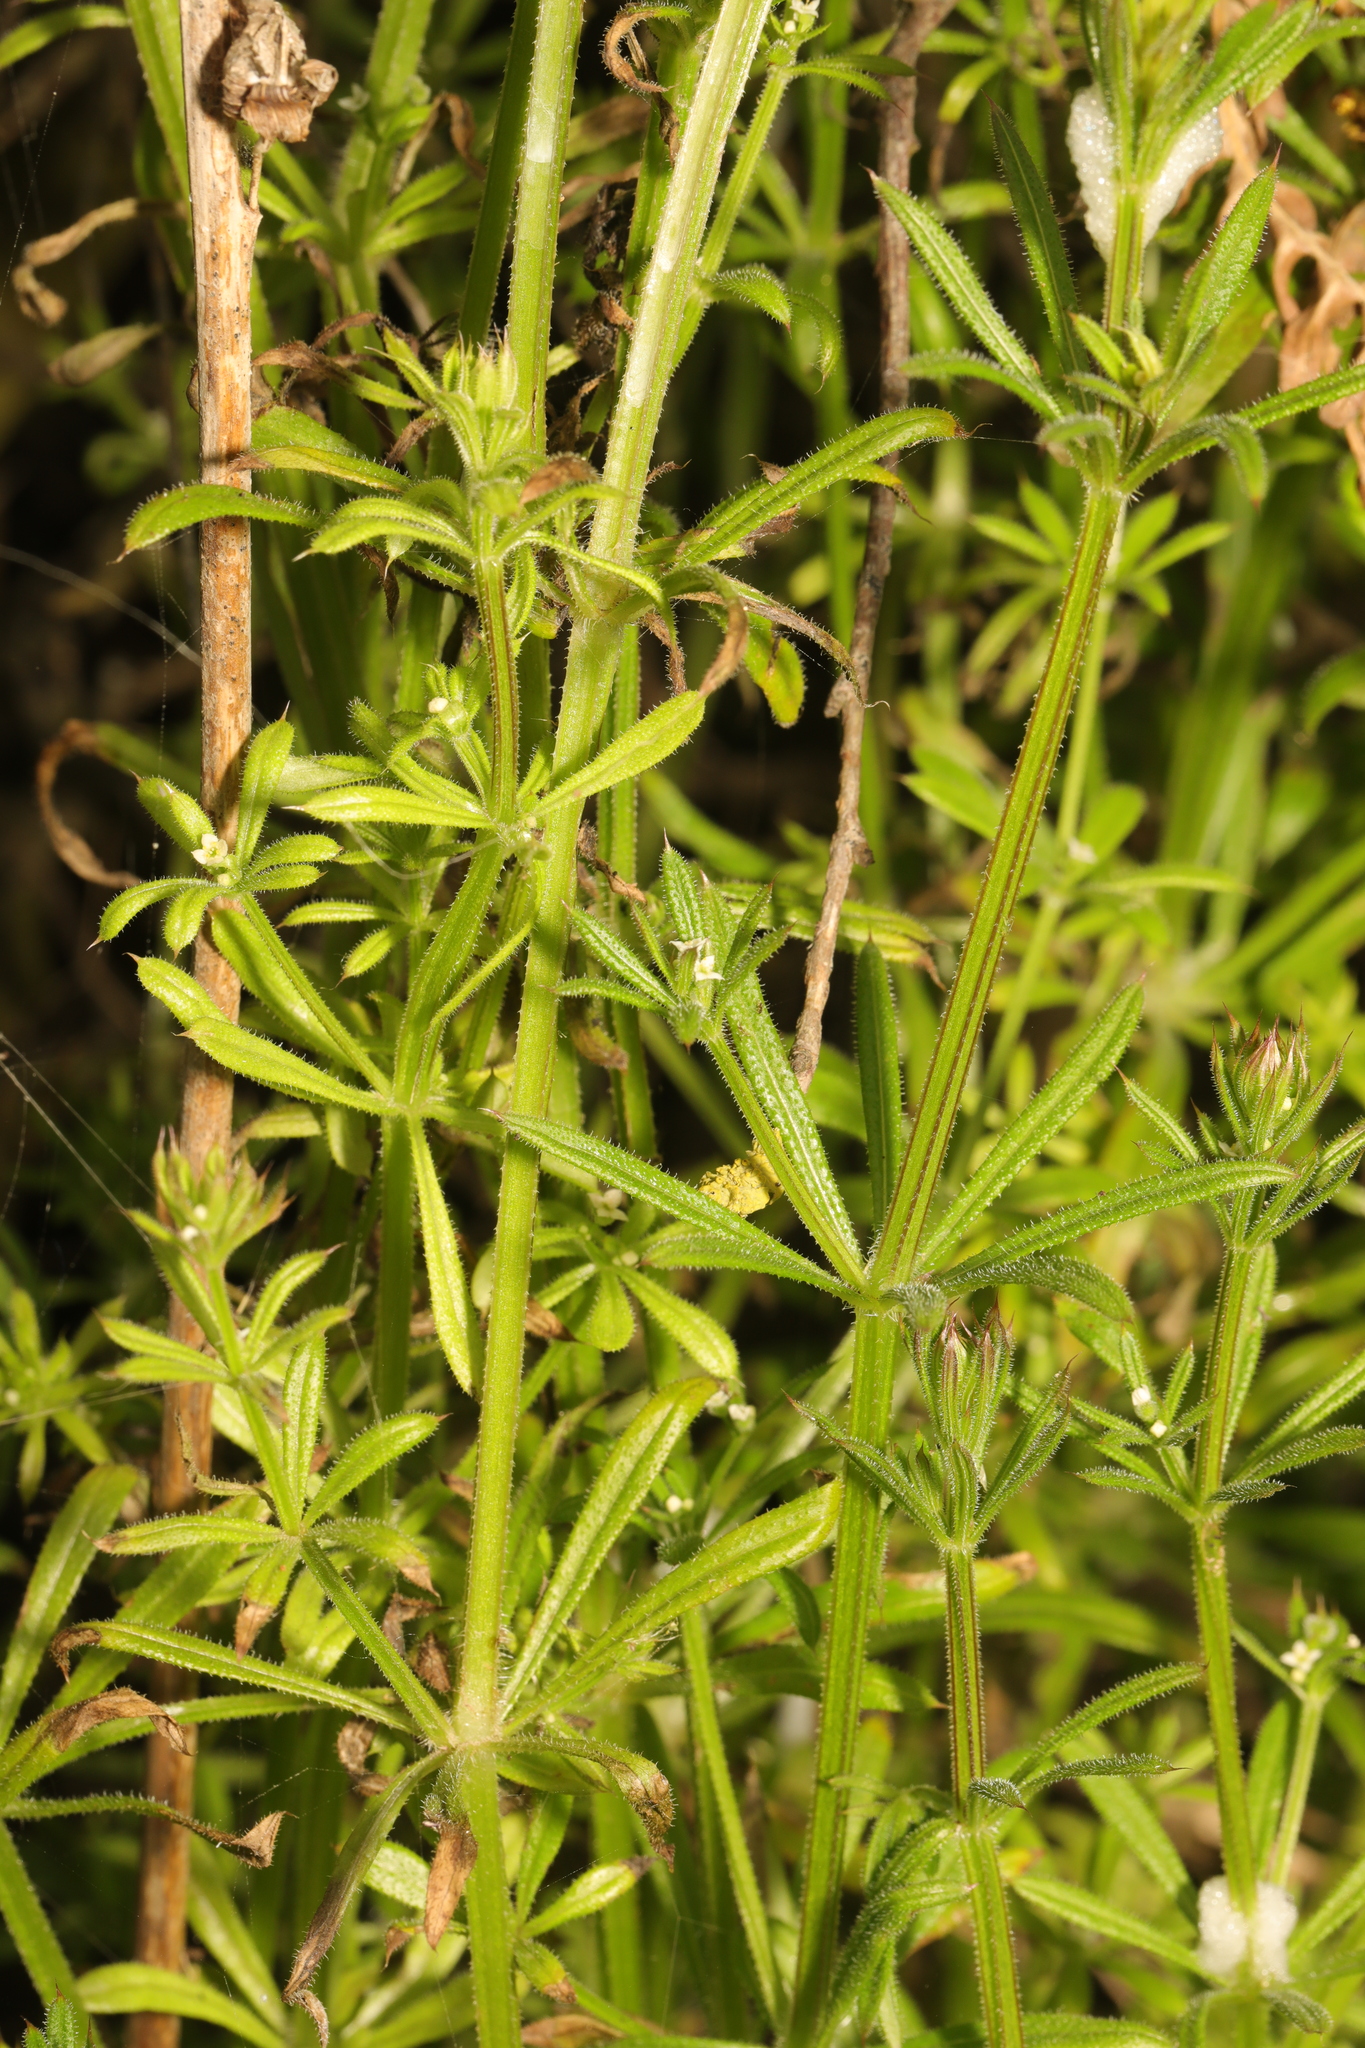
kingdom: Plantae
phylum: Tracheophyta
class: Magnoliopsida
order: Gentianales
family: Rubiaceae
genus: Galium
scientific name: Galium aparine
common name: Cleavers
